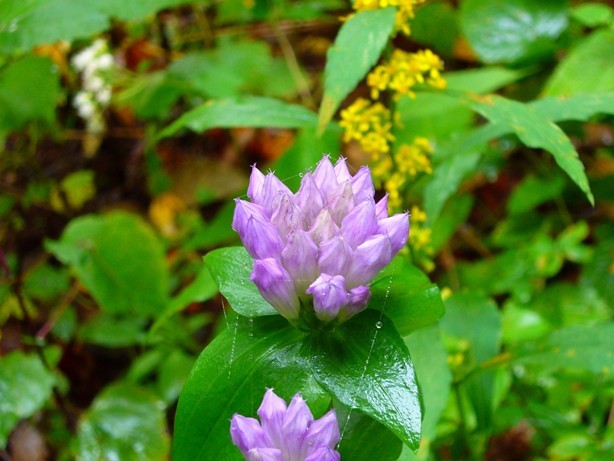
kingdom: Plantae
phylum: Tracheophyta
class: Magnoliopsida
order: Gentianales
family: Gentianaceae
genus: Gentianella
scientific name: Gentianella quinquefolia
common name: Agueweed
